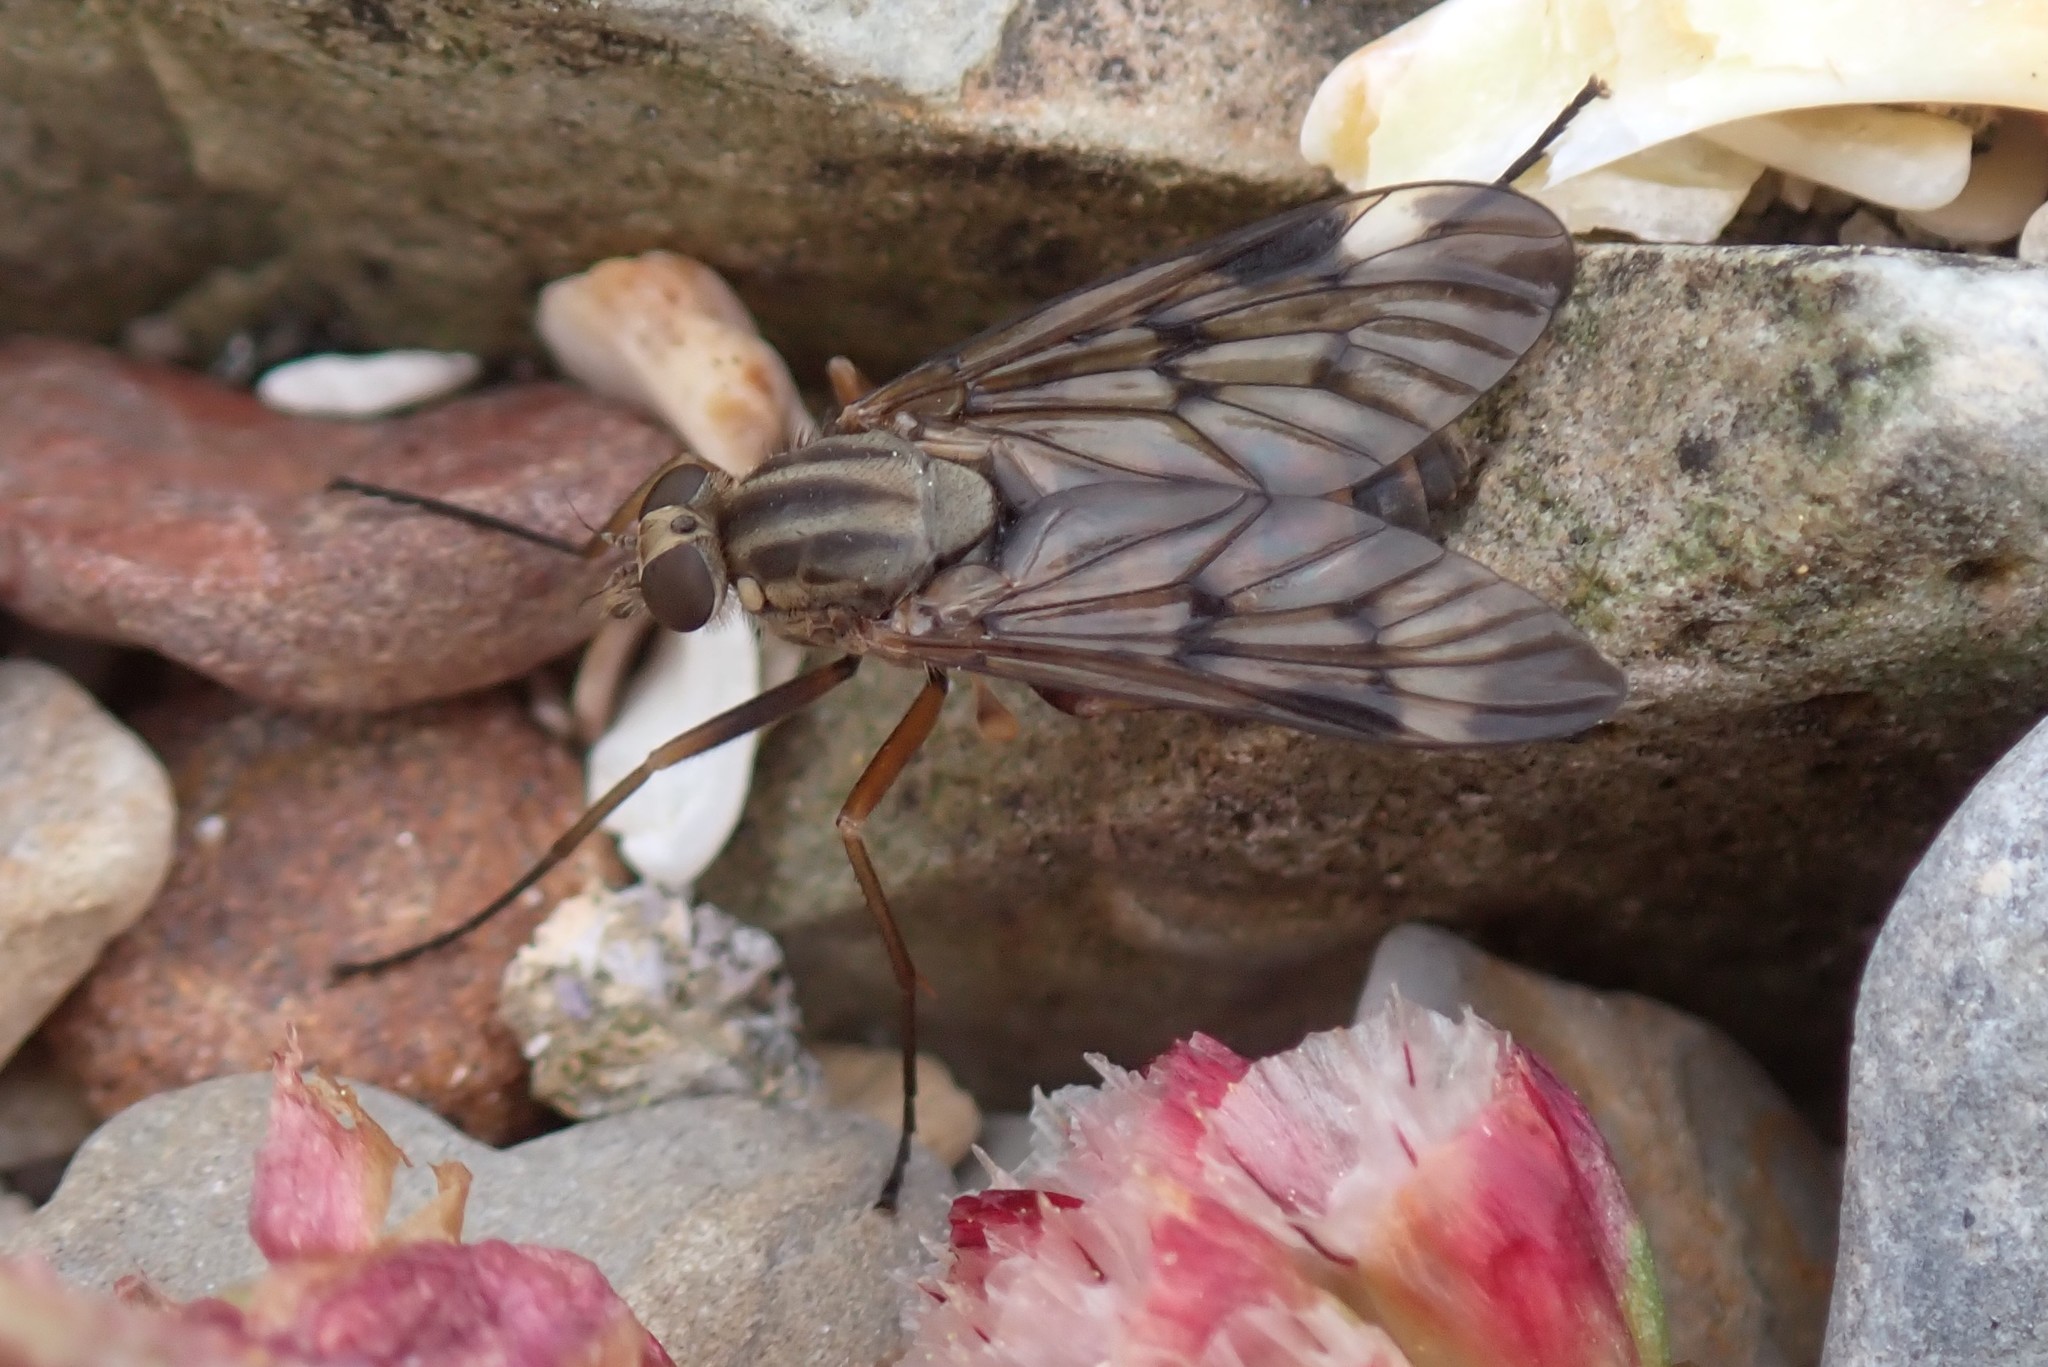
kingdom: Animalia
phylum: Arthropoda
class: Insecta
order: Diptera
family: Rhagionidae
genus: Rhagio
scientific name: Rhagio scolopacea
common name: Downlooker snipefly
